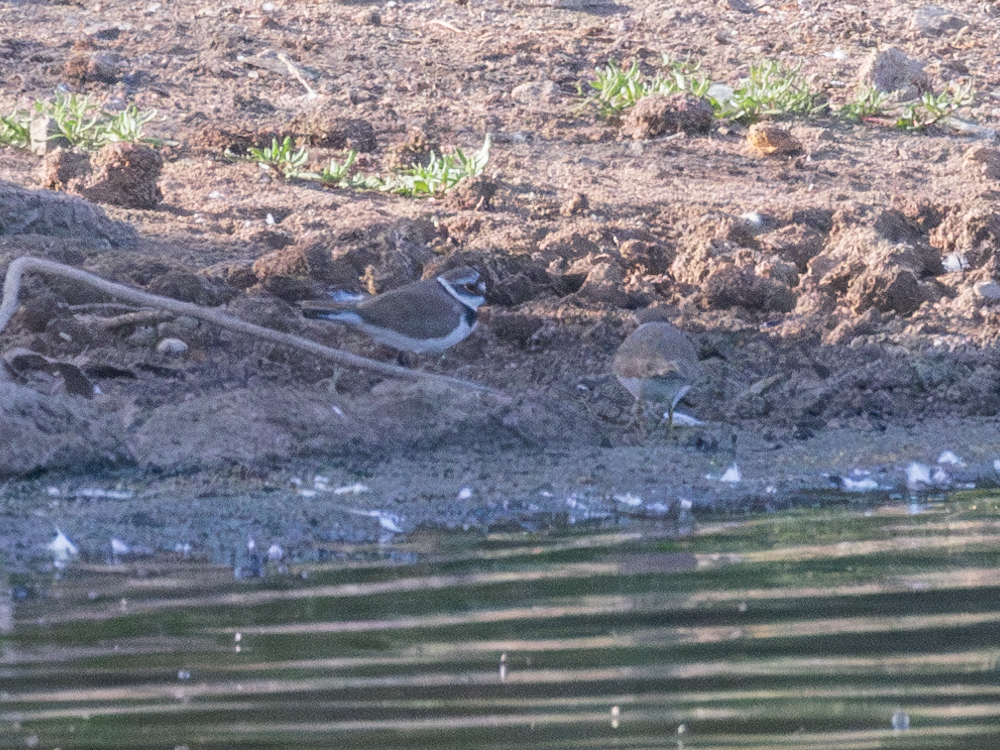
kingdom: Animalia
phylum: Chordata
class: Aves
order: Charadriiformes
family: Charadriidae
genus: Charadrius
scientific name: Charadrius dubius
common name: Little ringed plover
